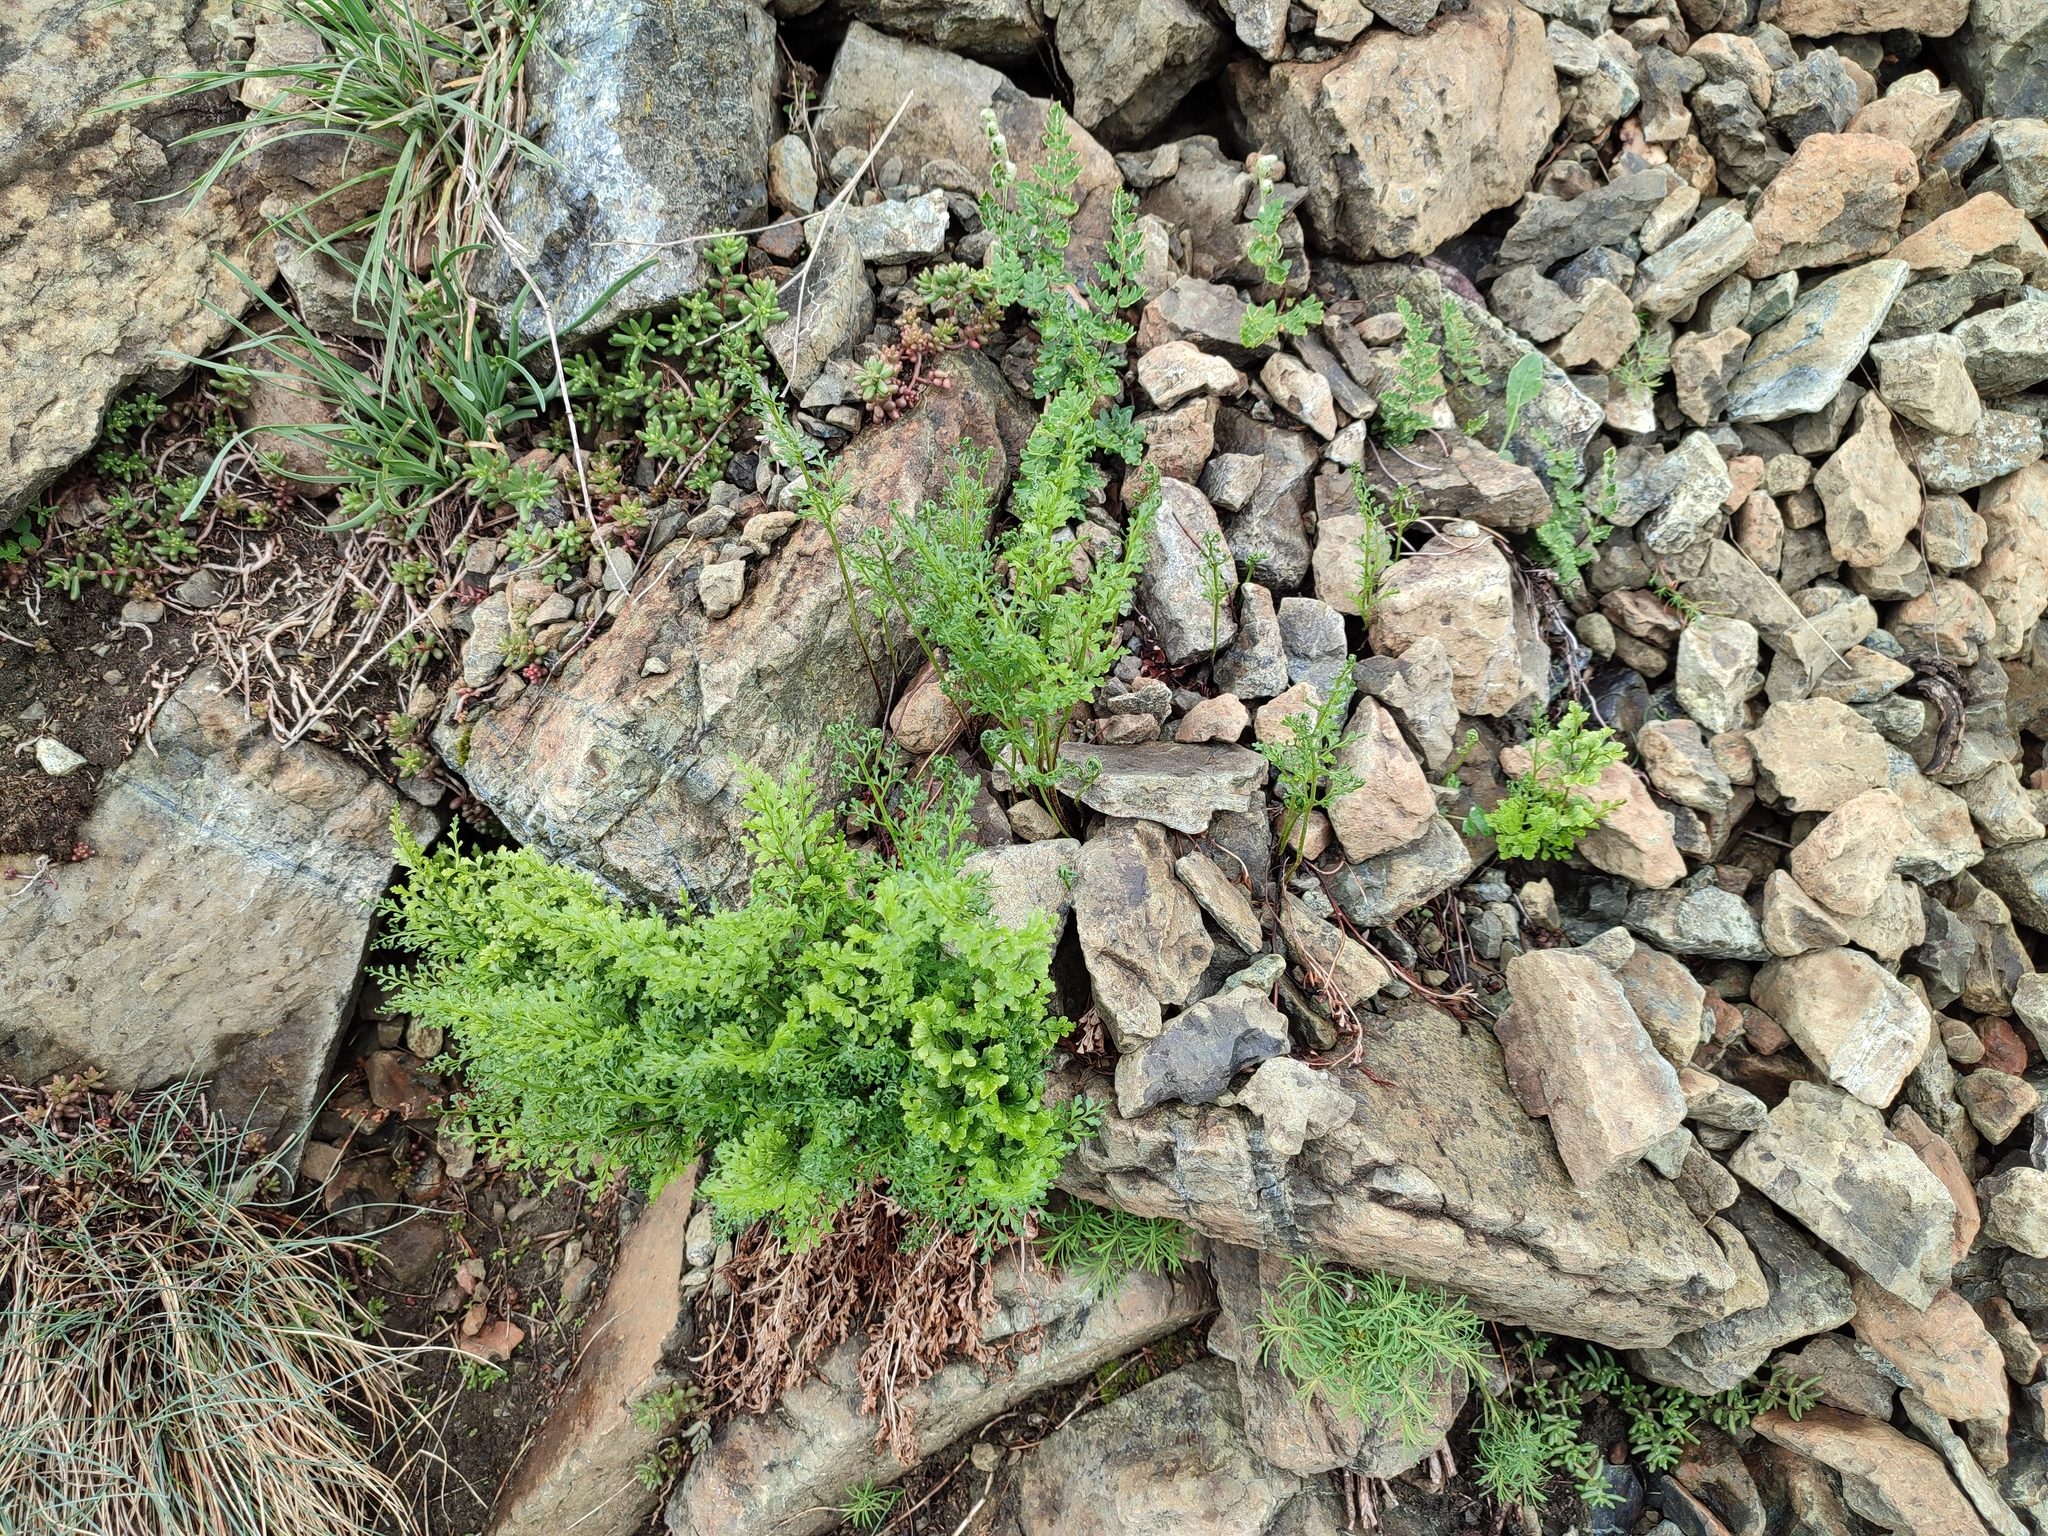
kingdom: Plantae
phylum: Tracheophyta
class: Polypodiopsida
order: Polypodiales
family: Aspleniaceae
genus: Asplenium
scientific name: Asplenium cuneifolium
